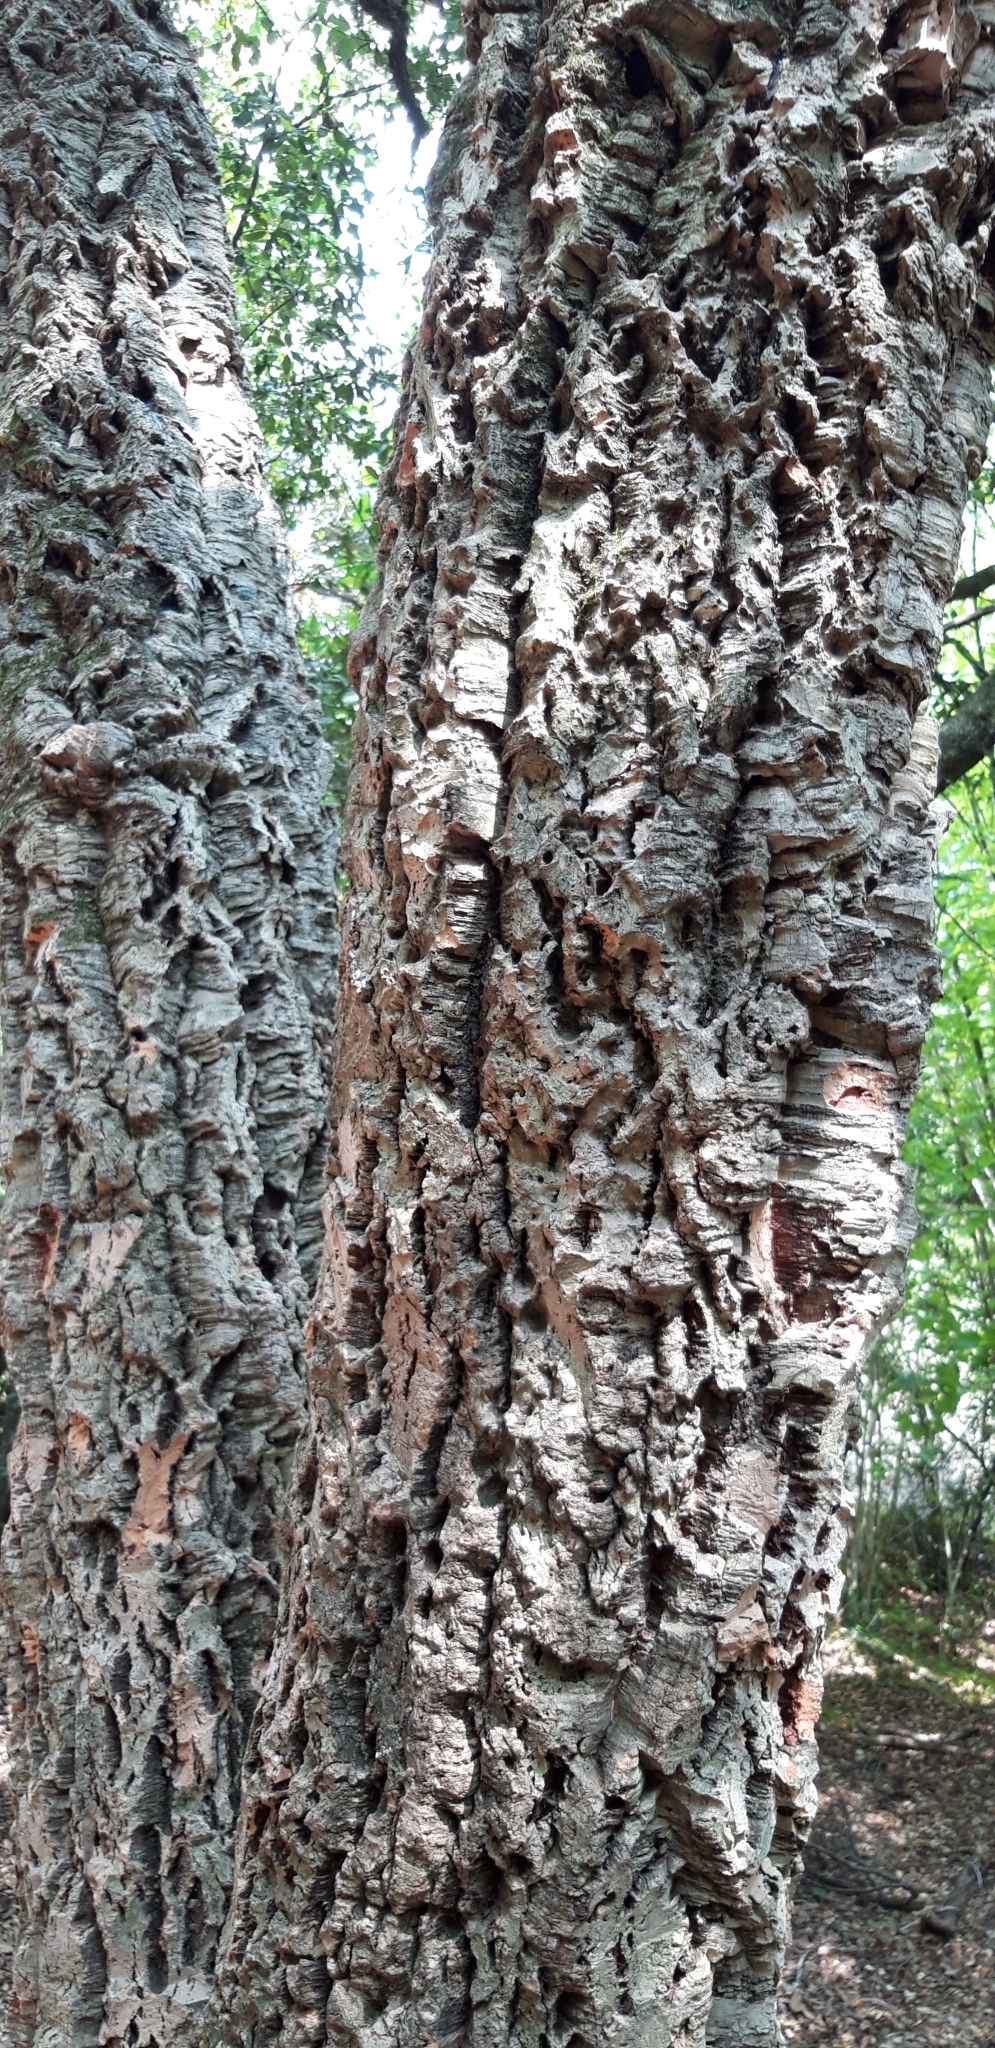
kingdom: Plantae
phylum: Tracheophyta
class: Magnoliopsida
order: Fagales
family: Fagaceae
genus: Quercus
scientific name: Quercus suber
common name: Cork oak
